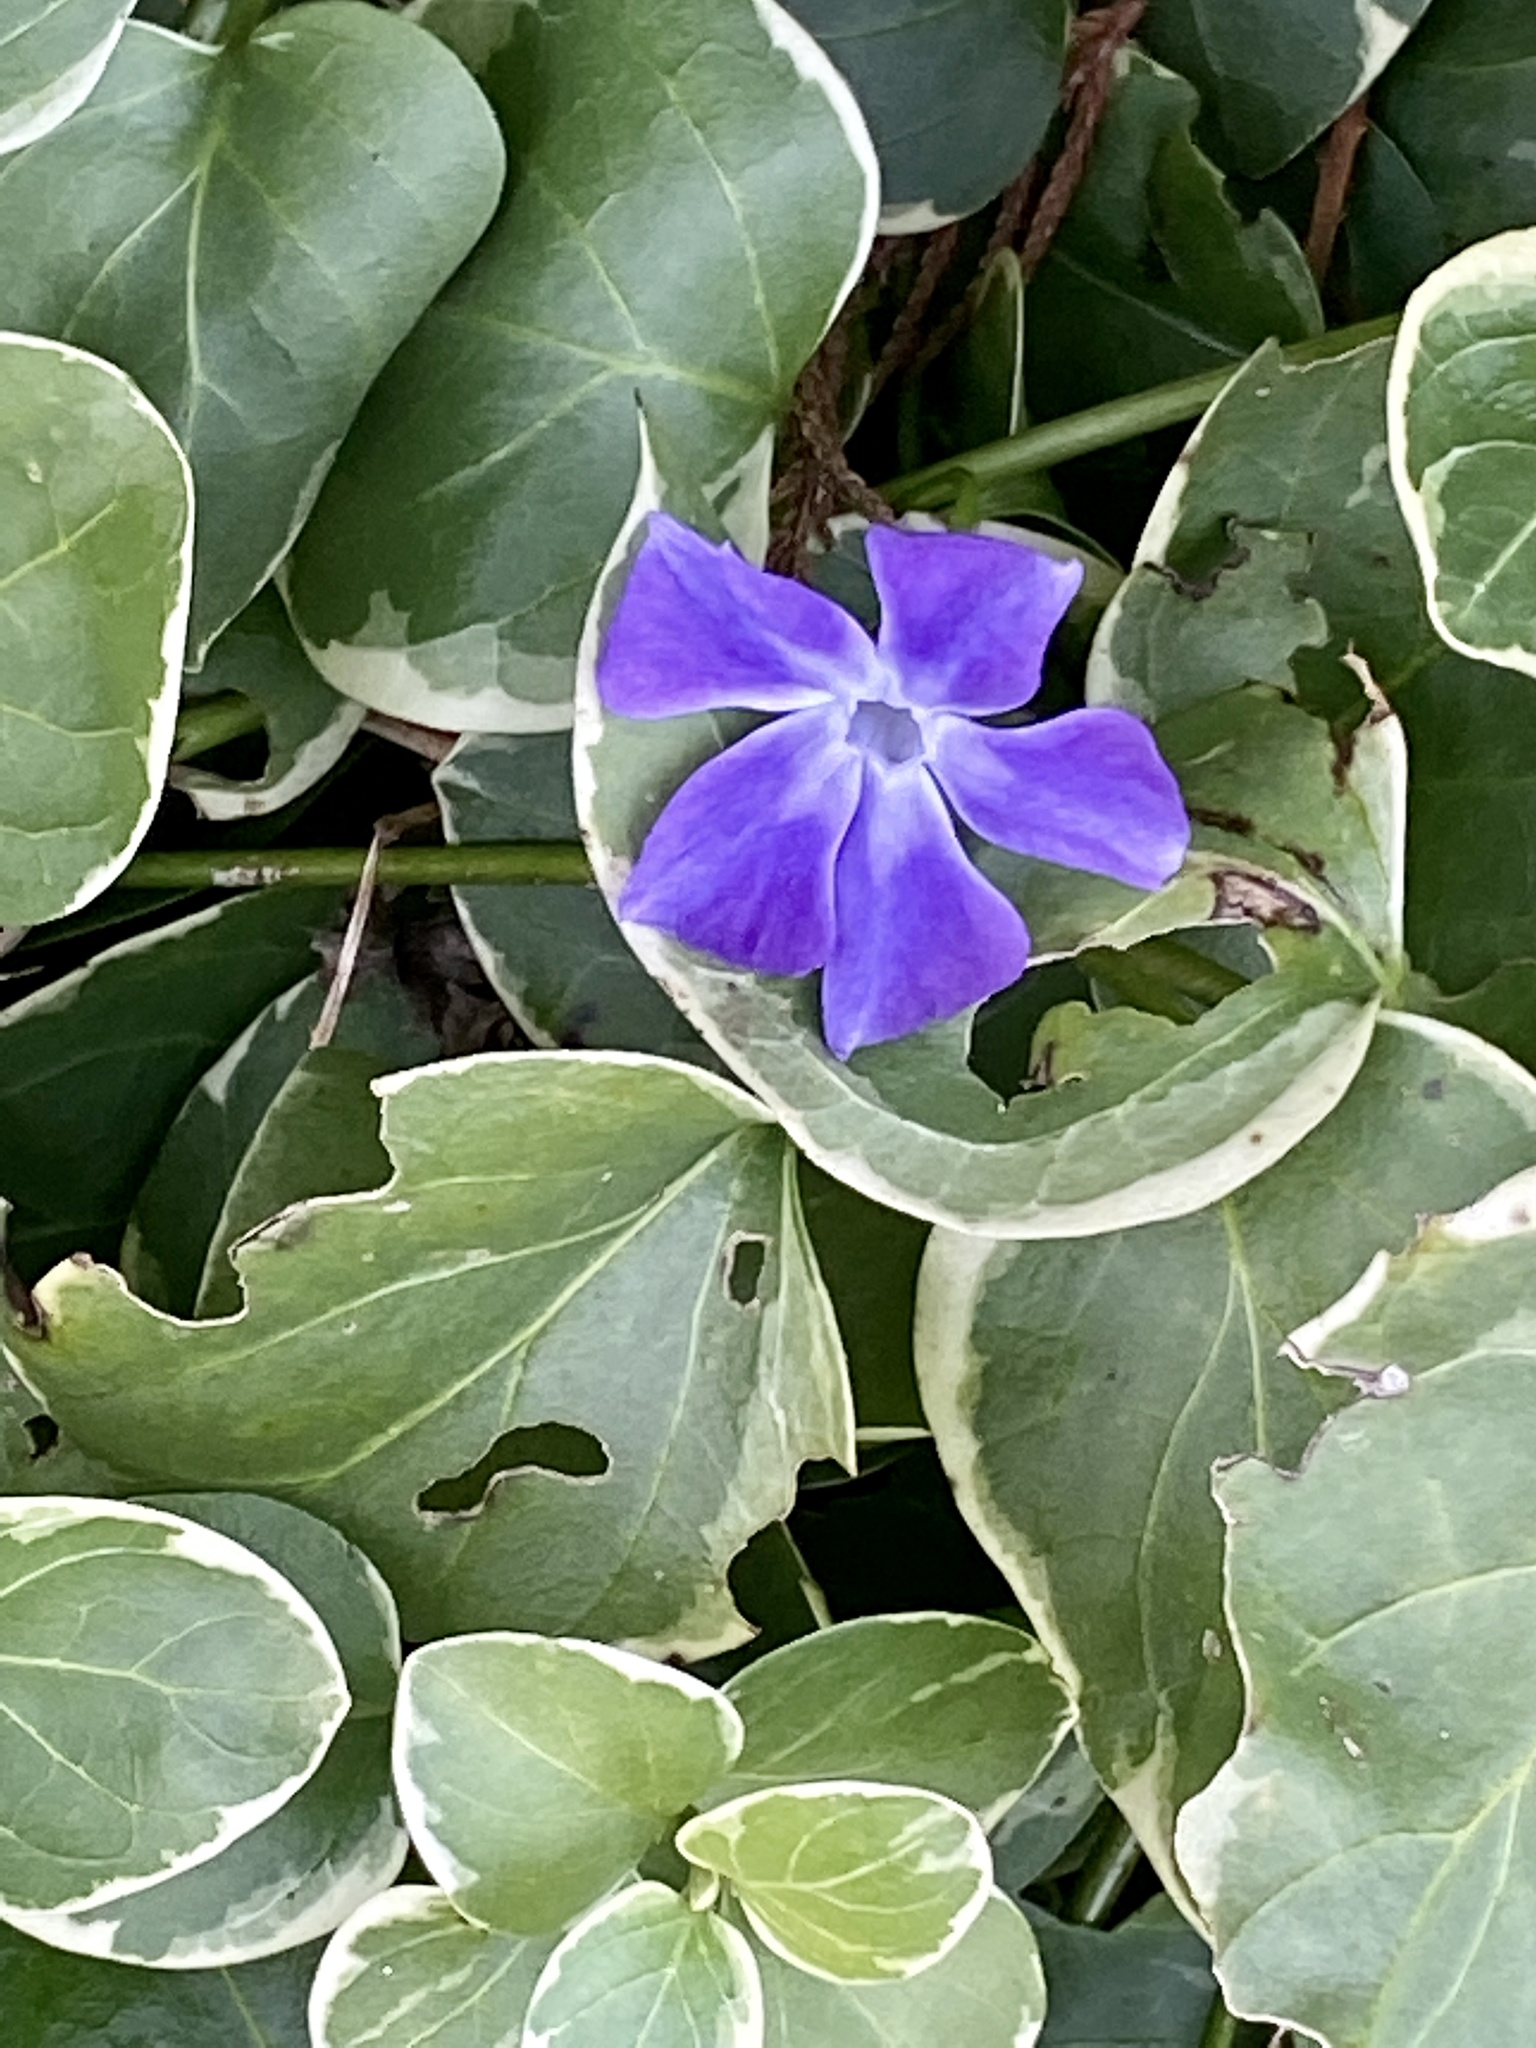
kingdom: Plantae
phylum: Tracheophyta
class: Magnoliopsida
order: Gentianales
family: Apocynaceae
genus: Vinca
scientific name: Vinca major
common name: Greater periwinkle
